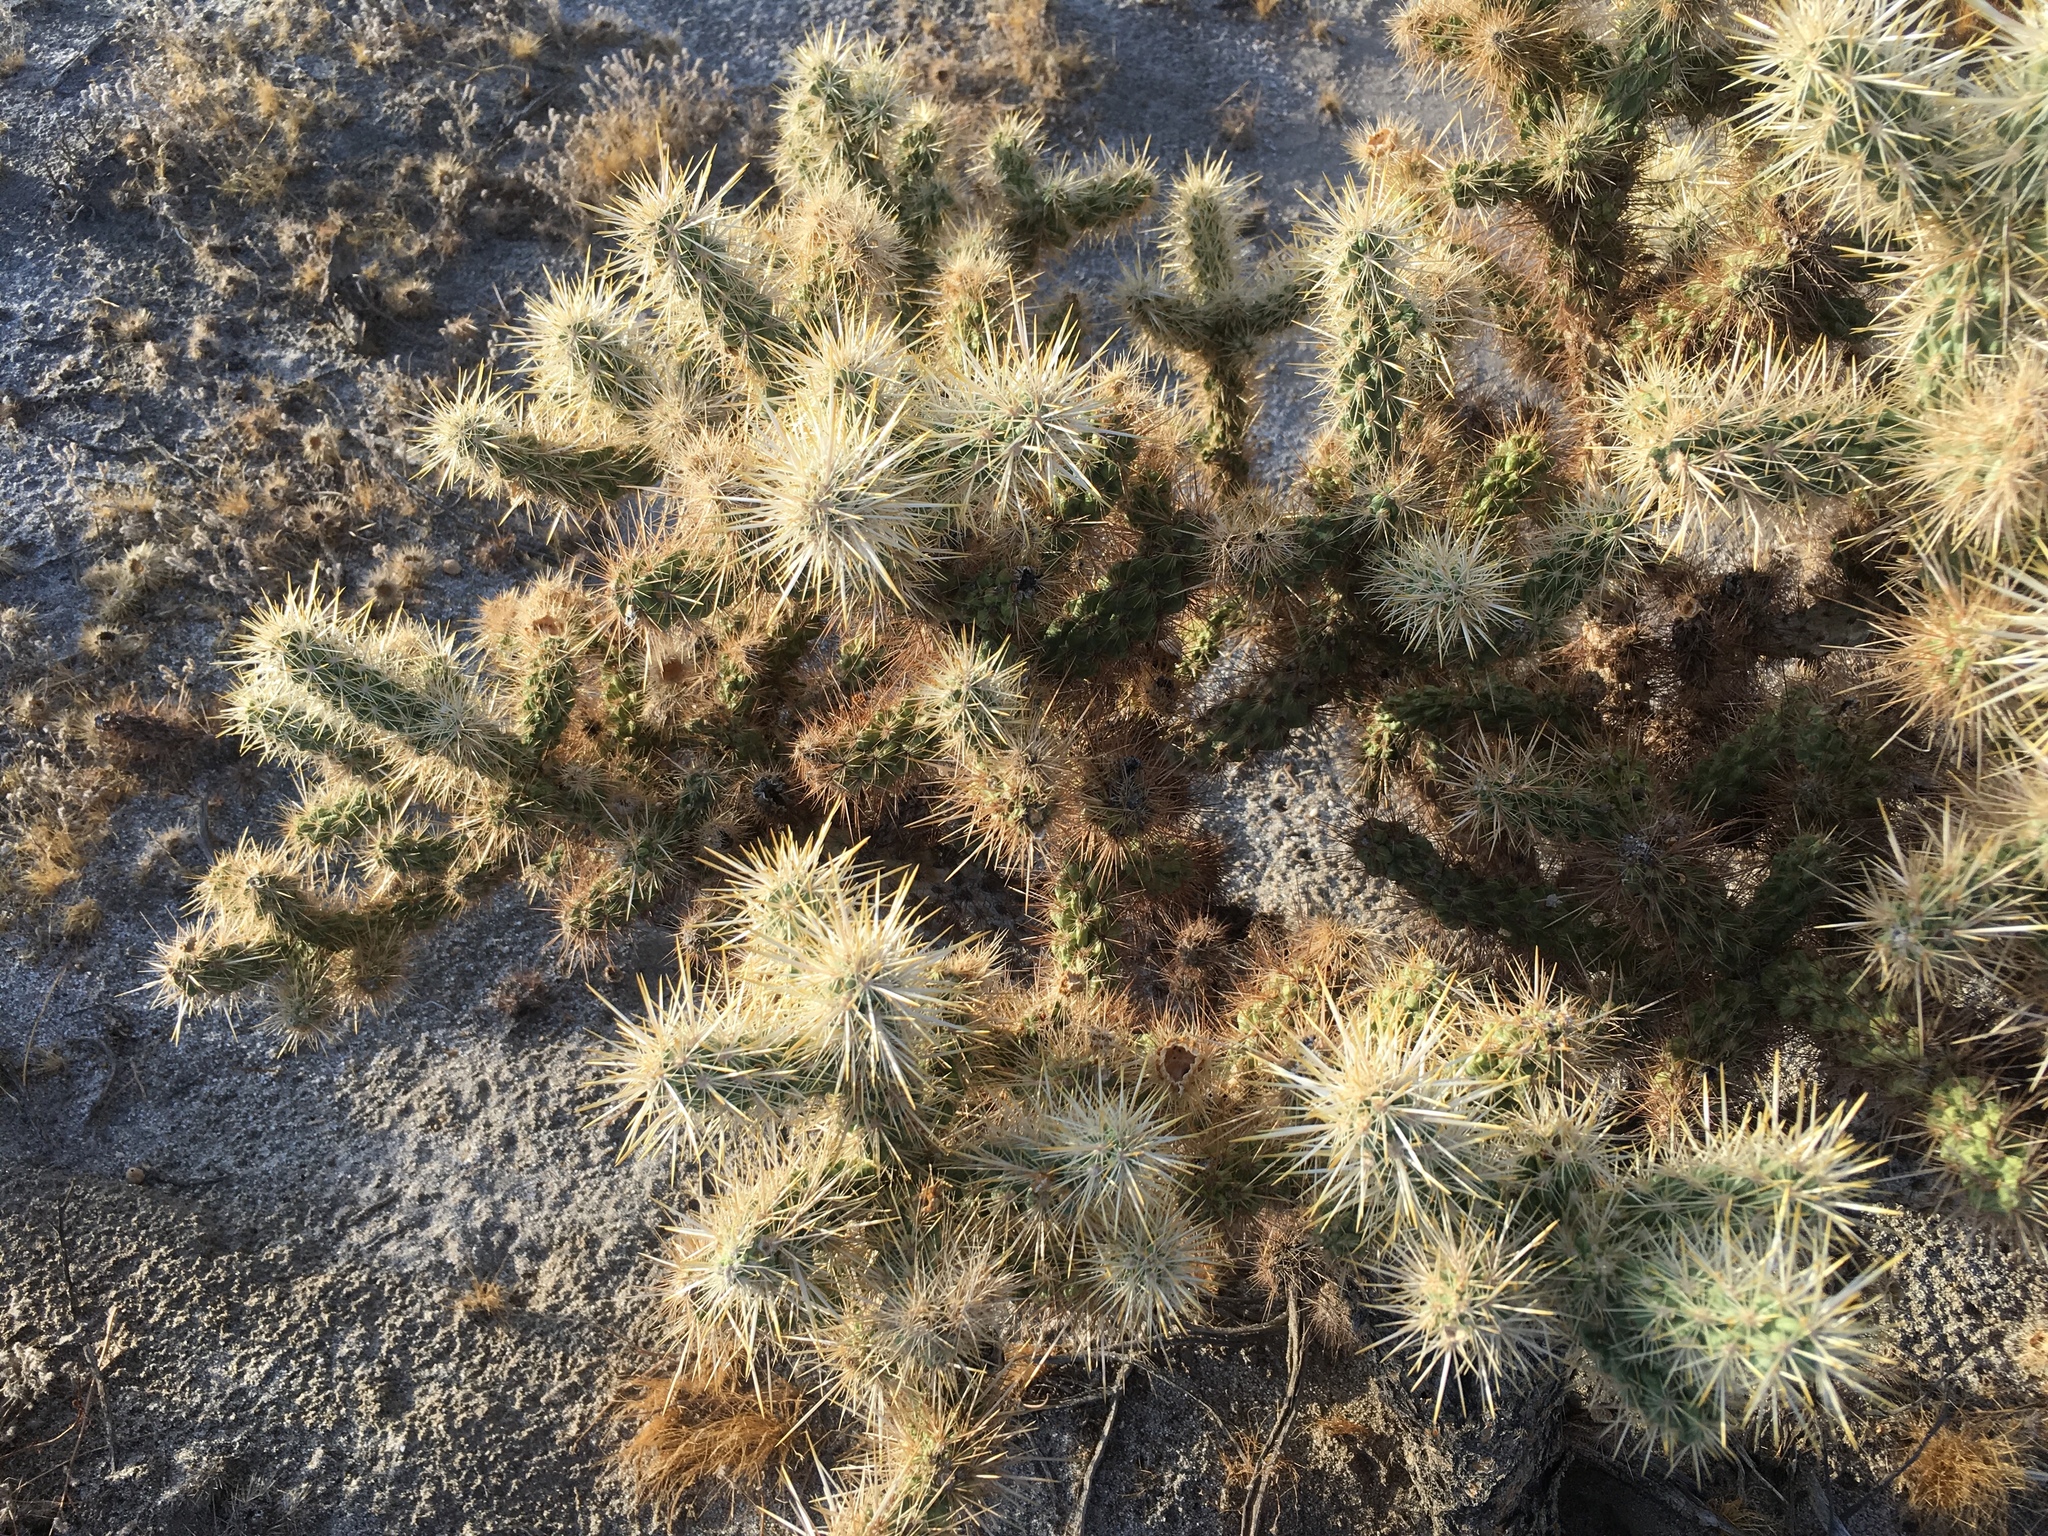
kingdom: Plantae
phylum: Tracheophyta
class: Magnoliopsida
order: Caryophyllales
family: Cactaceae
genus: Cylindropuntia
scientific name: Cylindropuntia echinocarpa
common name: Ground cholla
